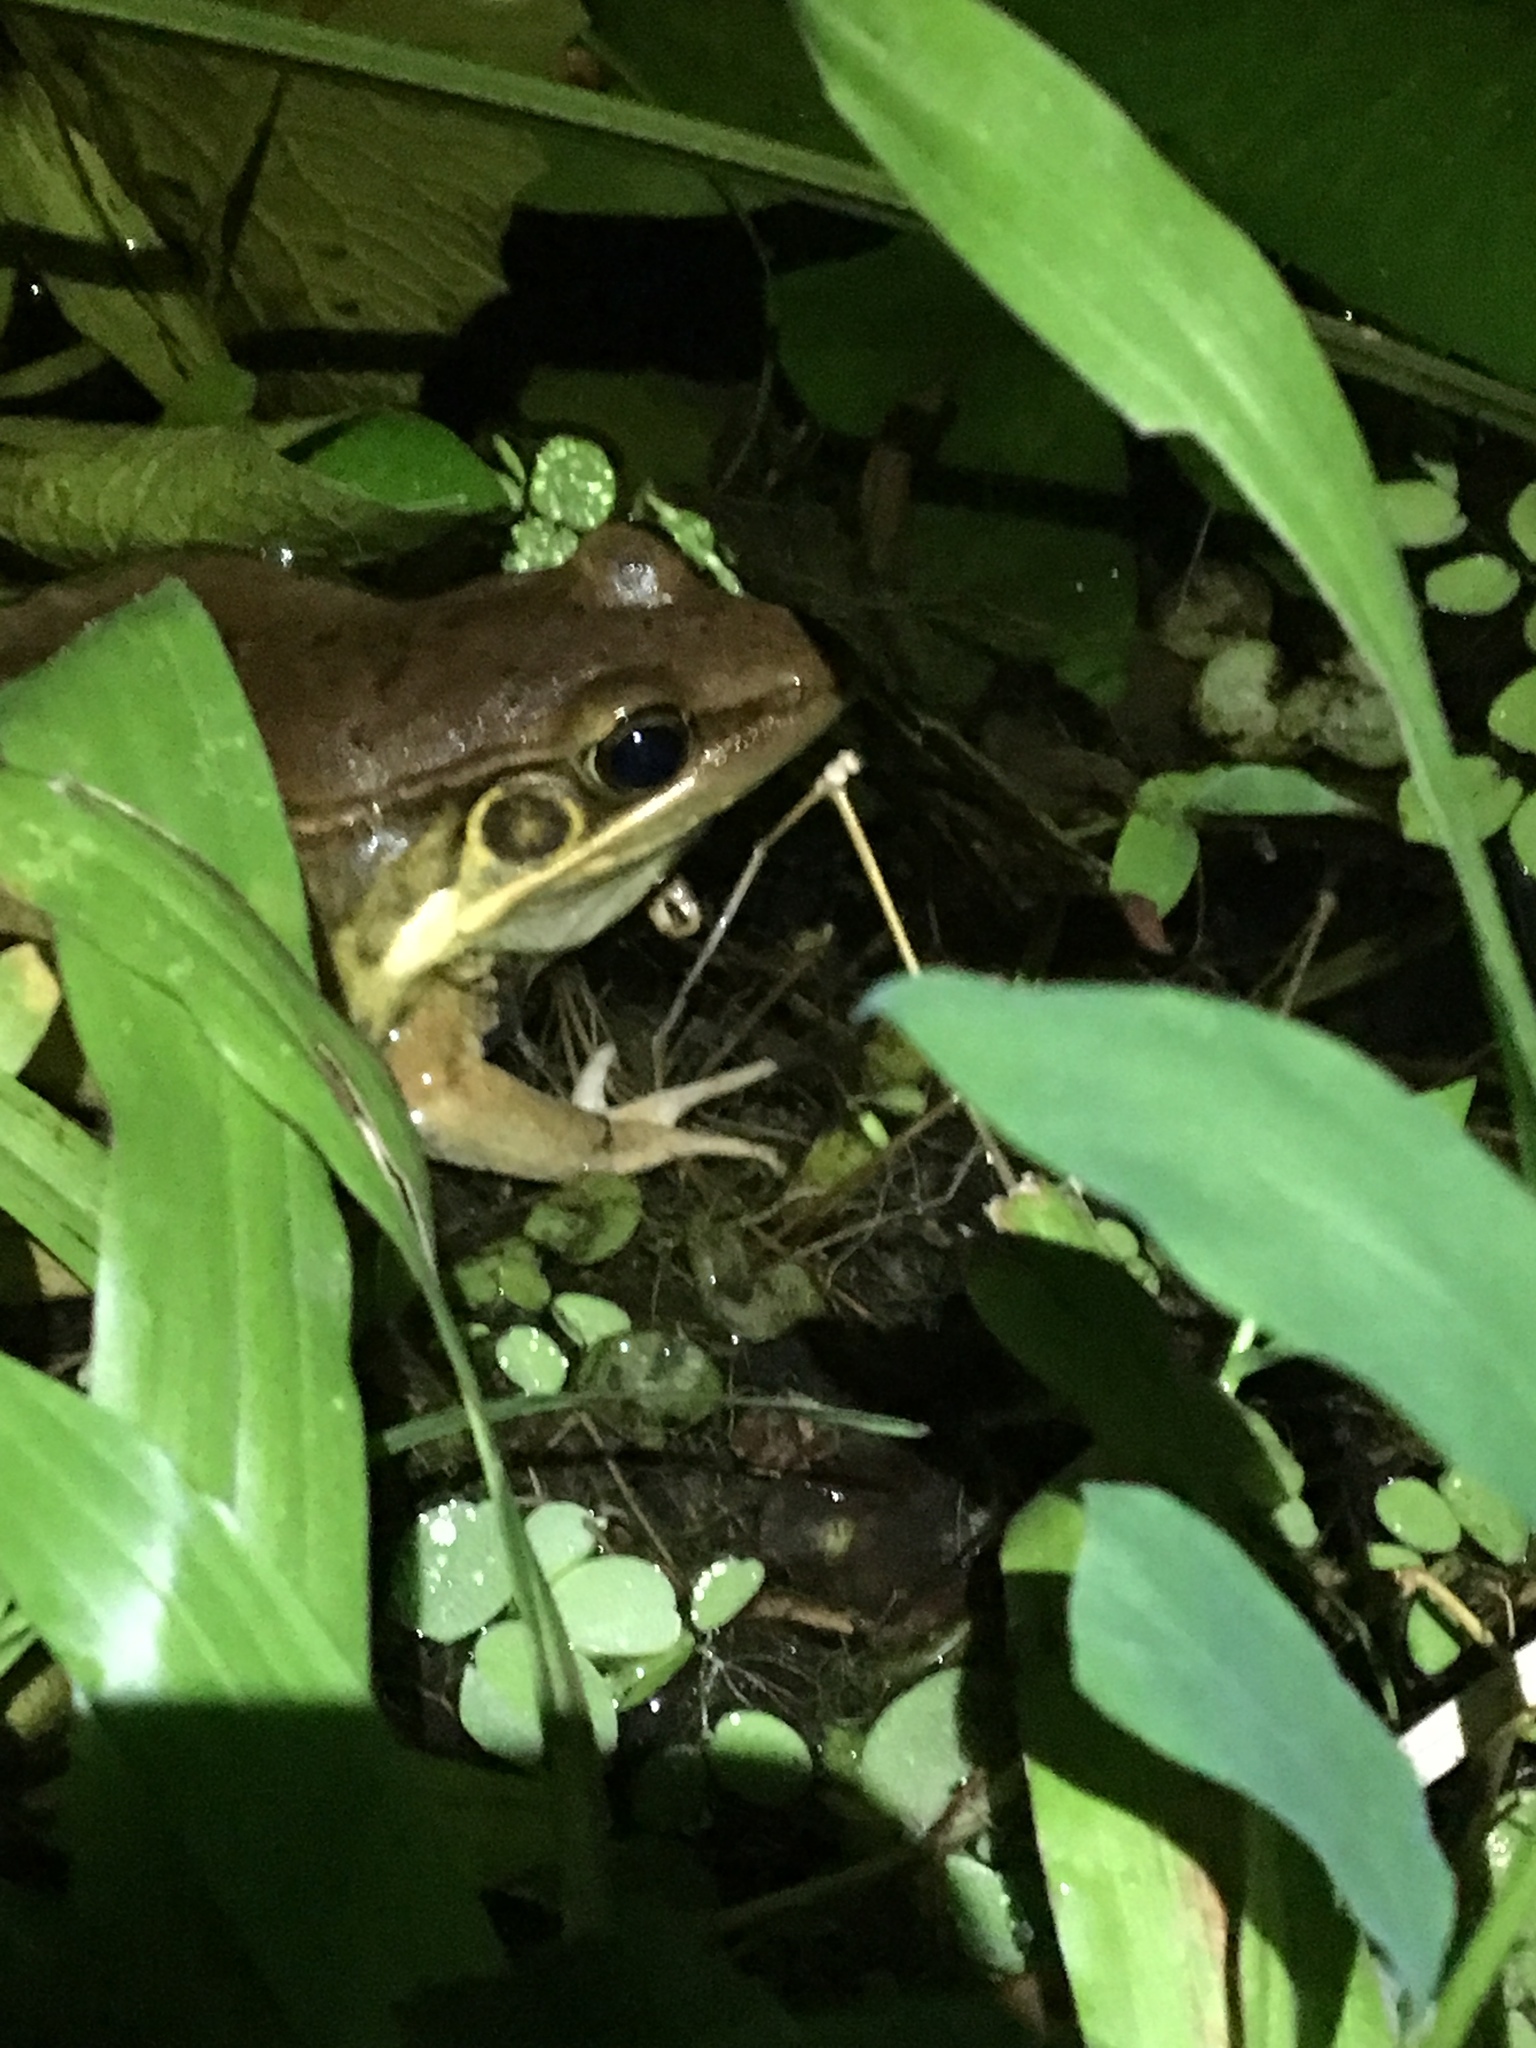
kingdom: Animalia
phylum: Chordata
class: Amphibia
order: Anura
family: Ranidae
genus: Sylvirana
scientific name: Sylvirana guentheri
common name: Guenther's amoy frog
